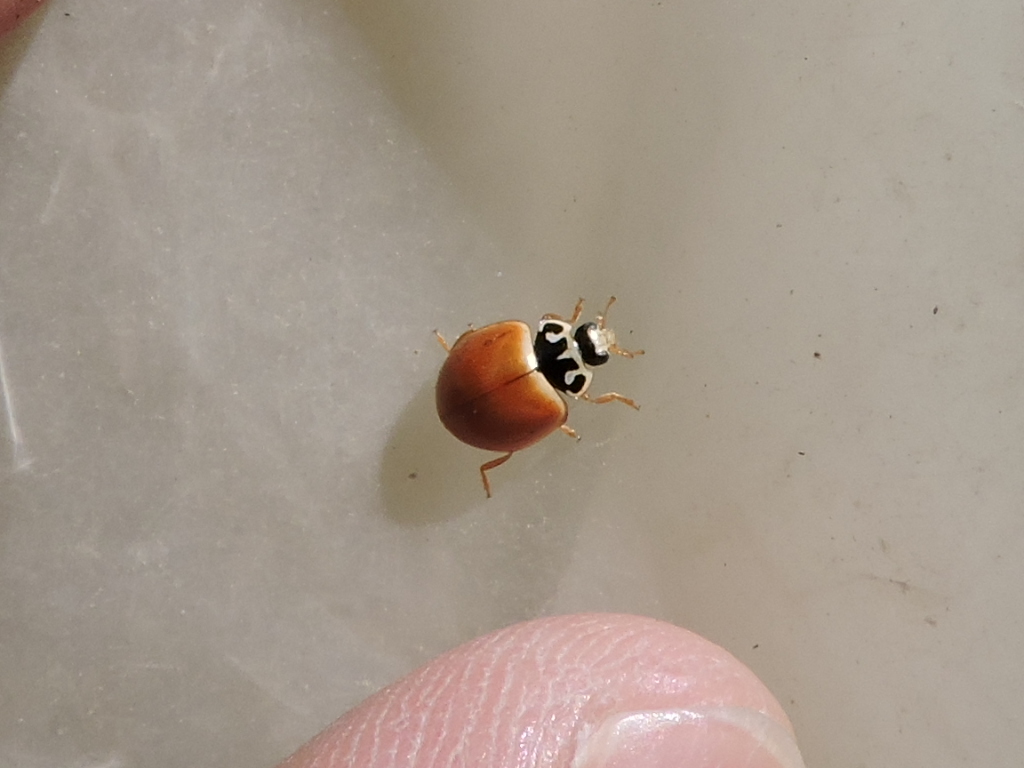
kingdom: Animalia
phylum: Arthropoda
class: Insecta
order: Coleoptera
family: Coccinellidae
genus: Cycloneda
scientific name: Cycloneda munda
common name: Polished lady beetle
